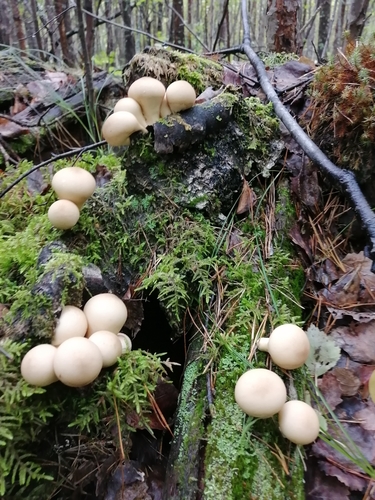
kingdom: Fungi
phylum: Basidiomycota
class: Agaricomycetes
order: Agaricales
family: Lycoperdaceae
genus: Apioperdon
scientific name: Apioperdon pyriforme
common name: Pear-shaped puffball
